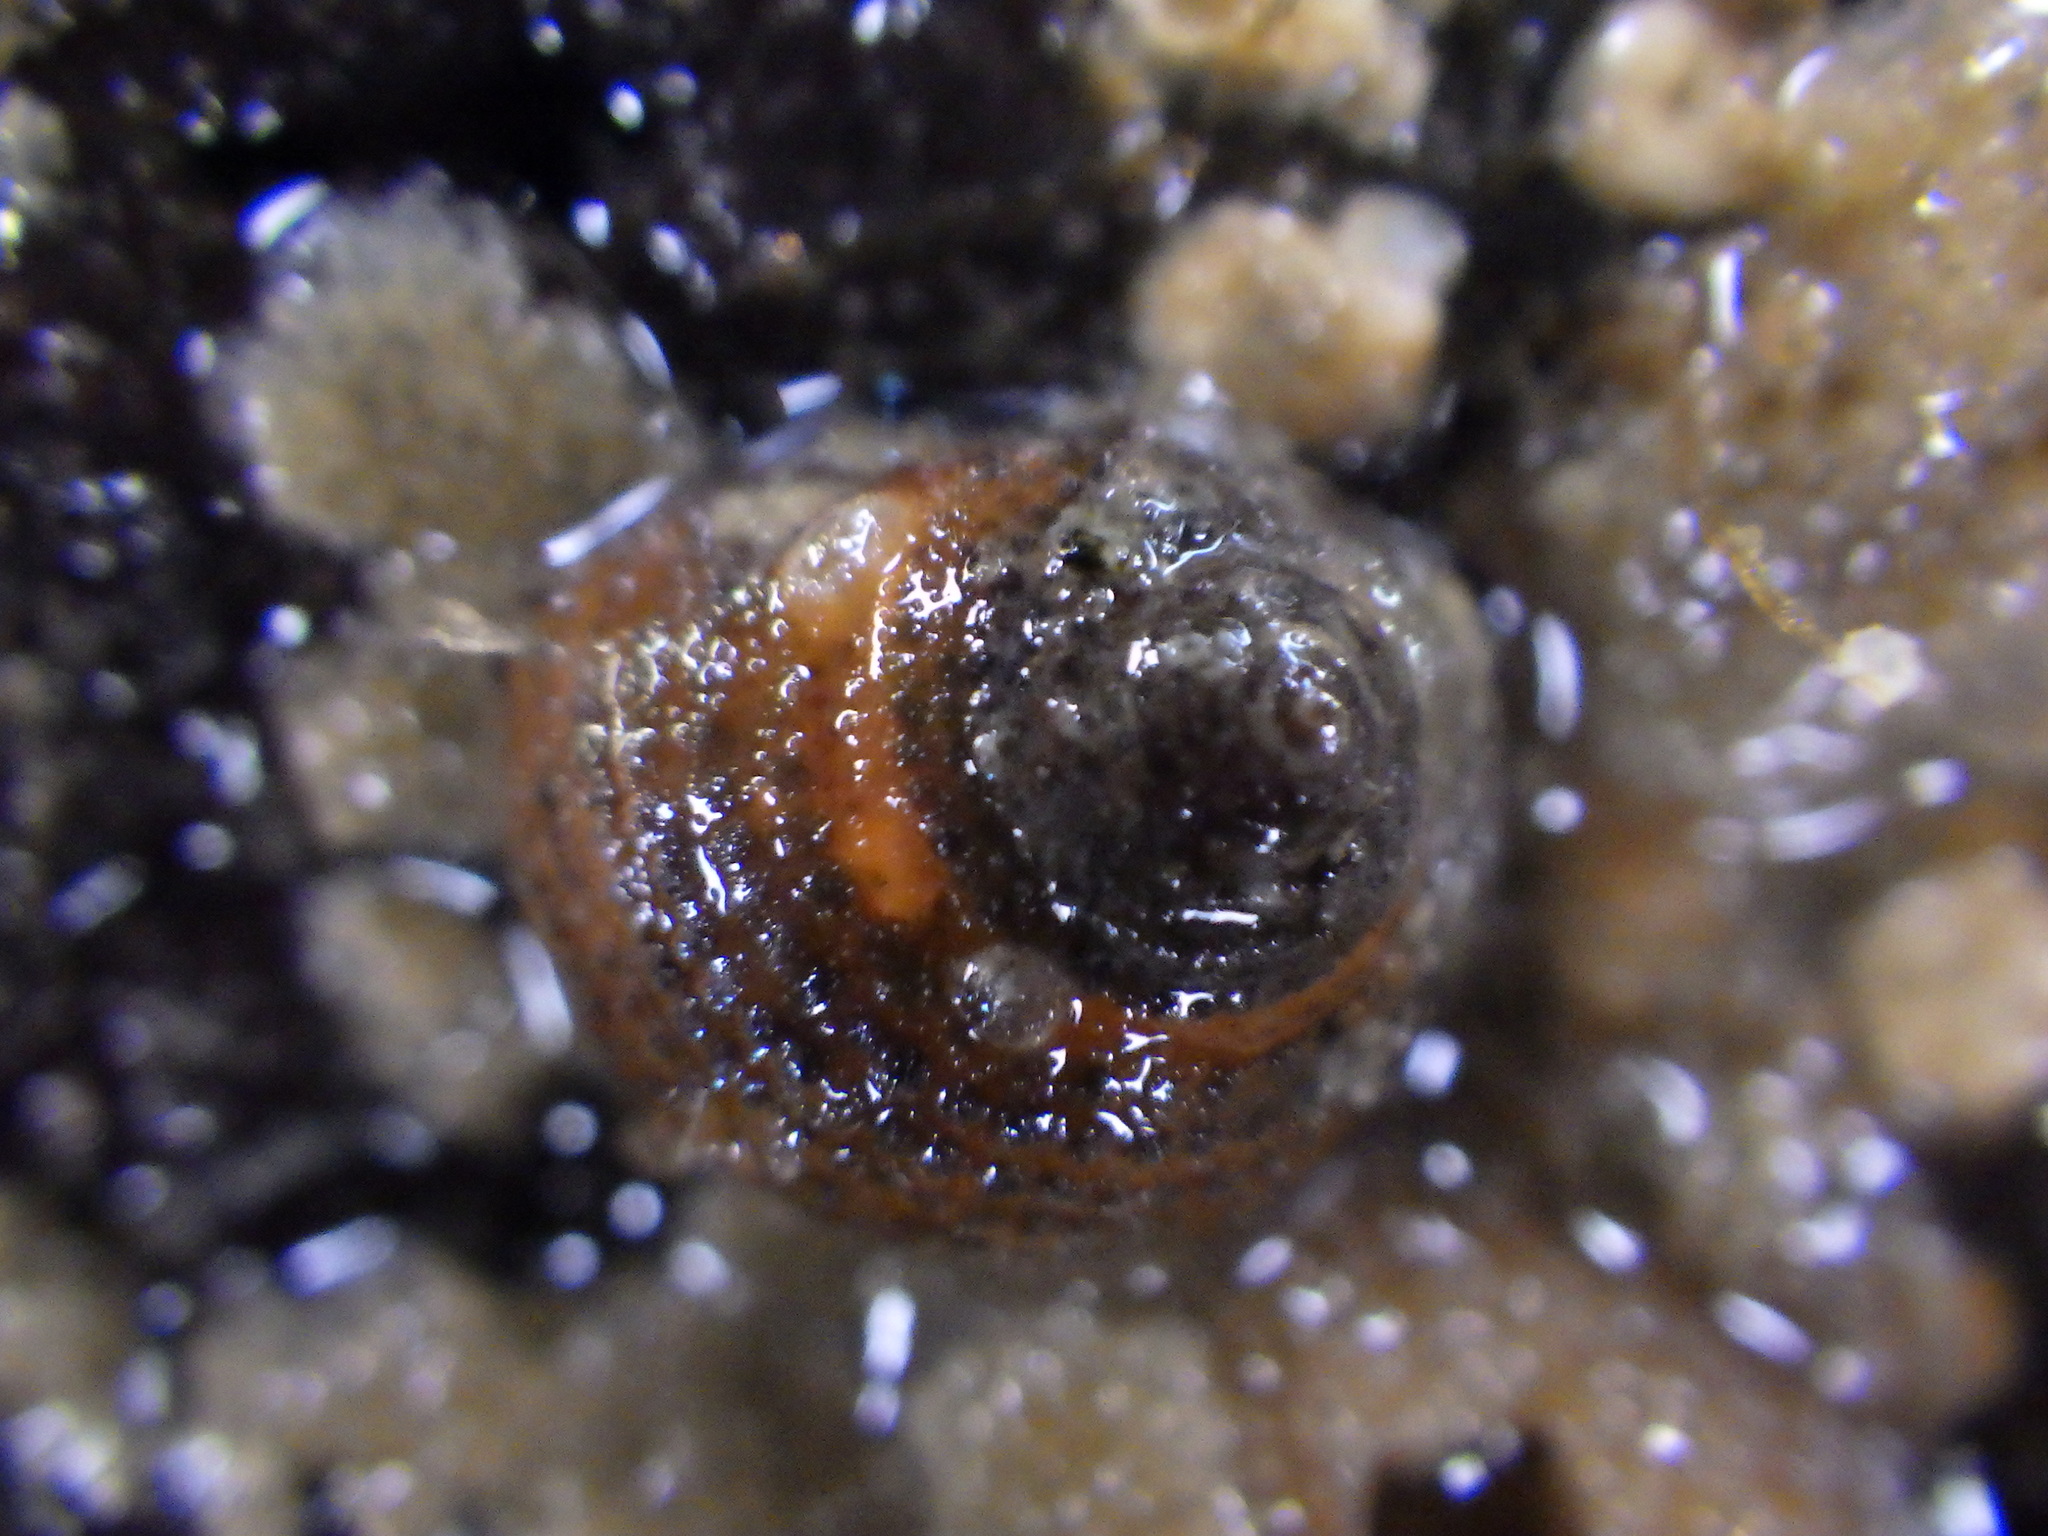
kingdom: Animalia
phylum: Mollusca
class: Gastropoda
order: Seguenziida
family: Chilodontaidae
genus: Herpetopoma
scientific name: Herpetopoma bellum
